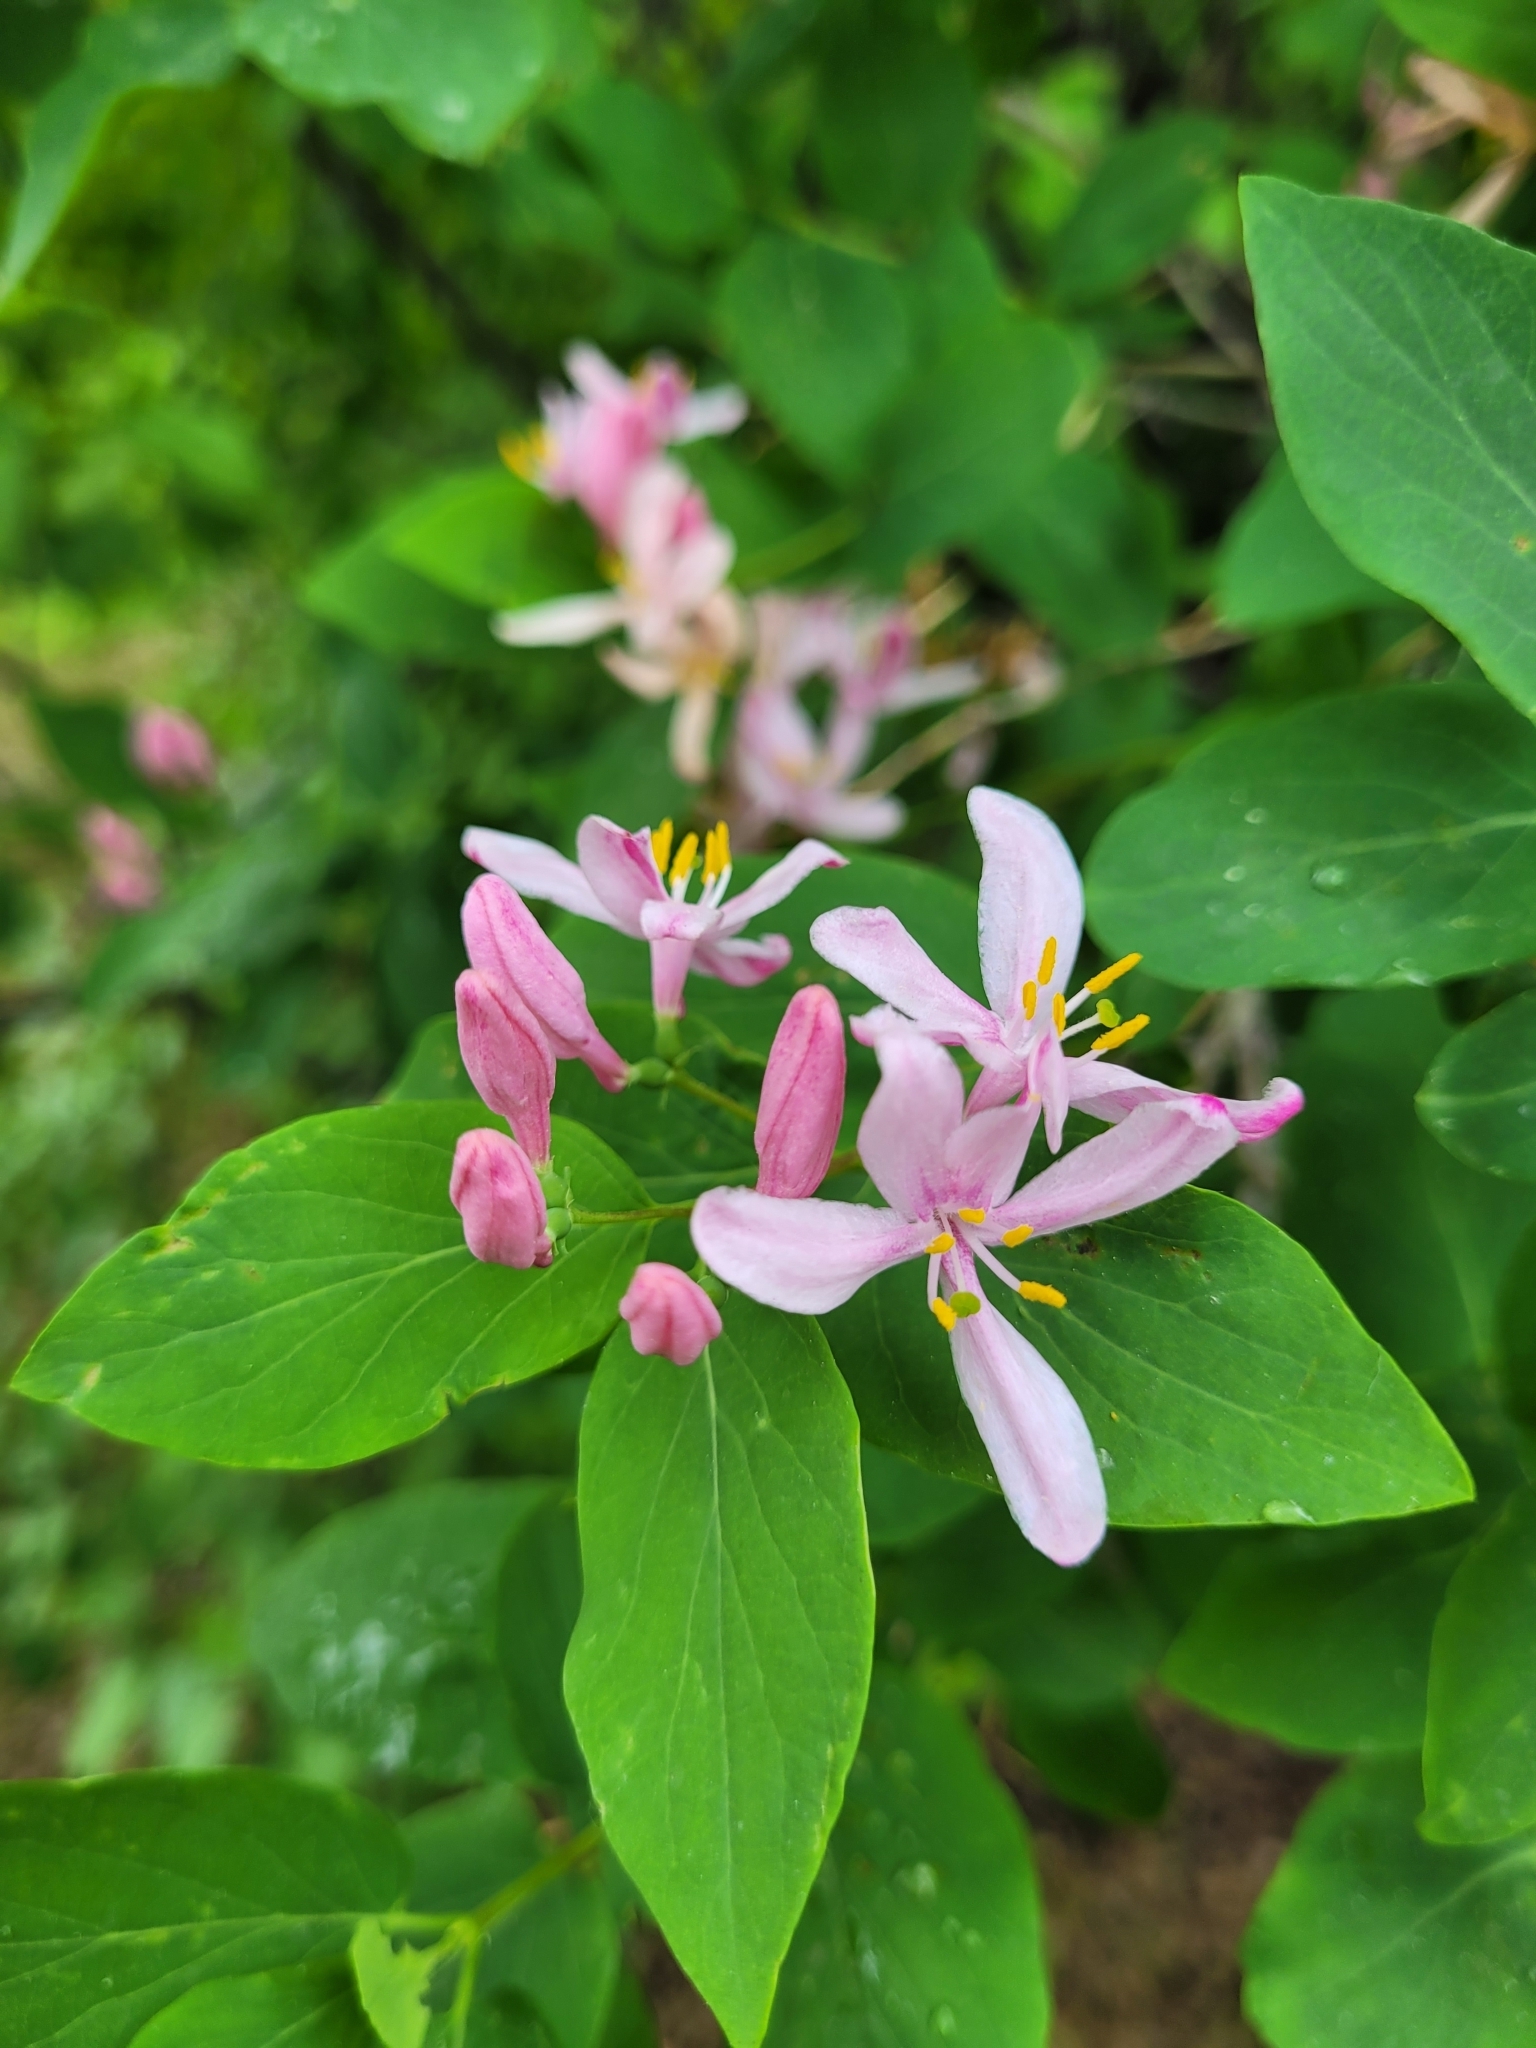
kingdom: Plantae
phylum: Tracheophyta
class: Magnoliopsida
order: Dipsacales
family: Caprifoliaceae
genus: Lonicera
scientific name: Lonicera tatarica
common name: Tatarian honeysuckle
